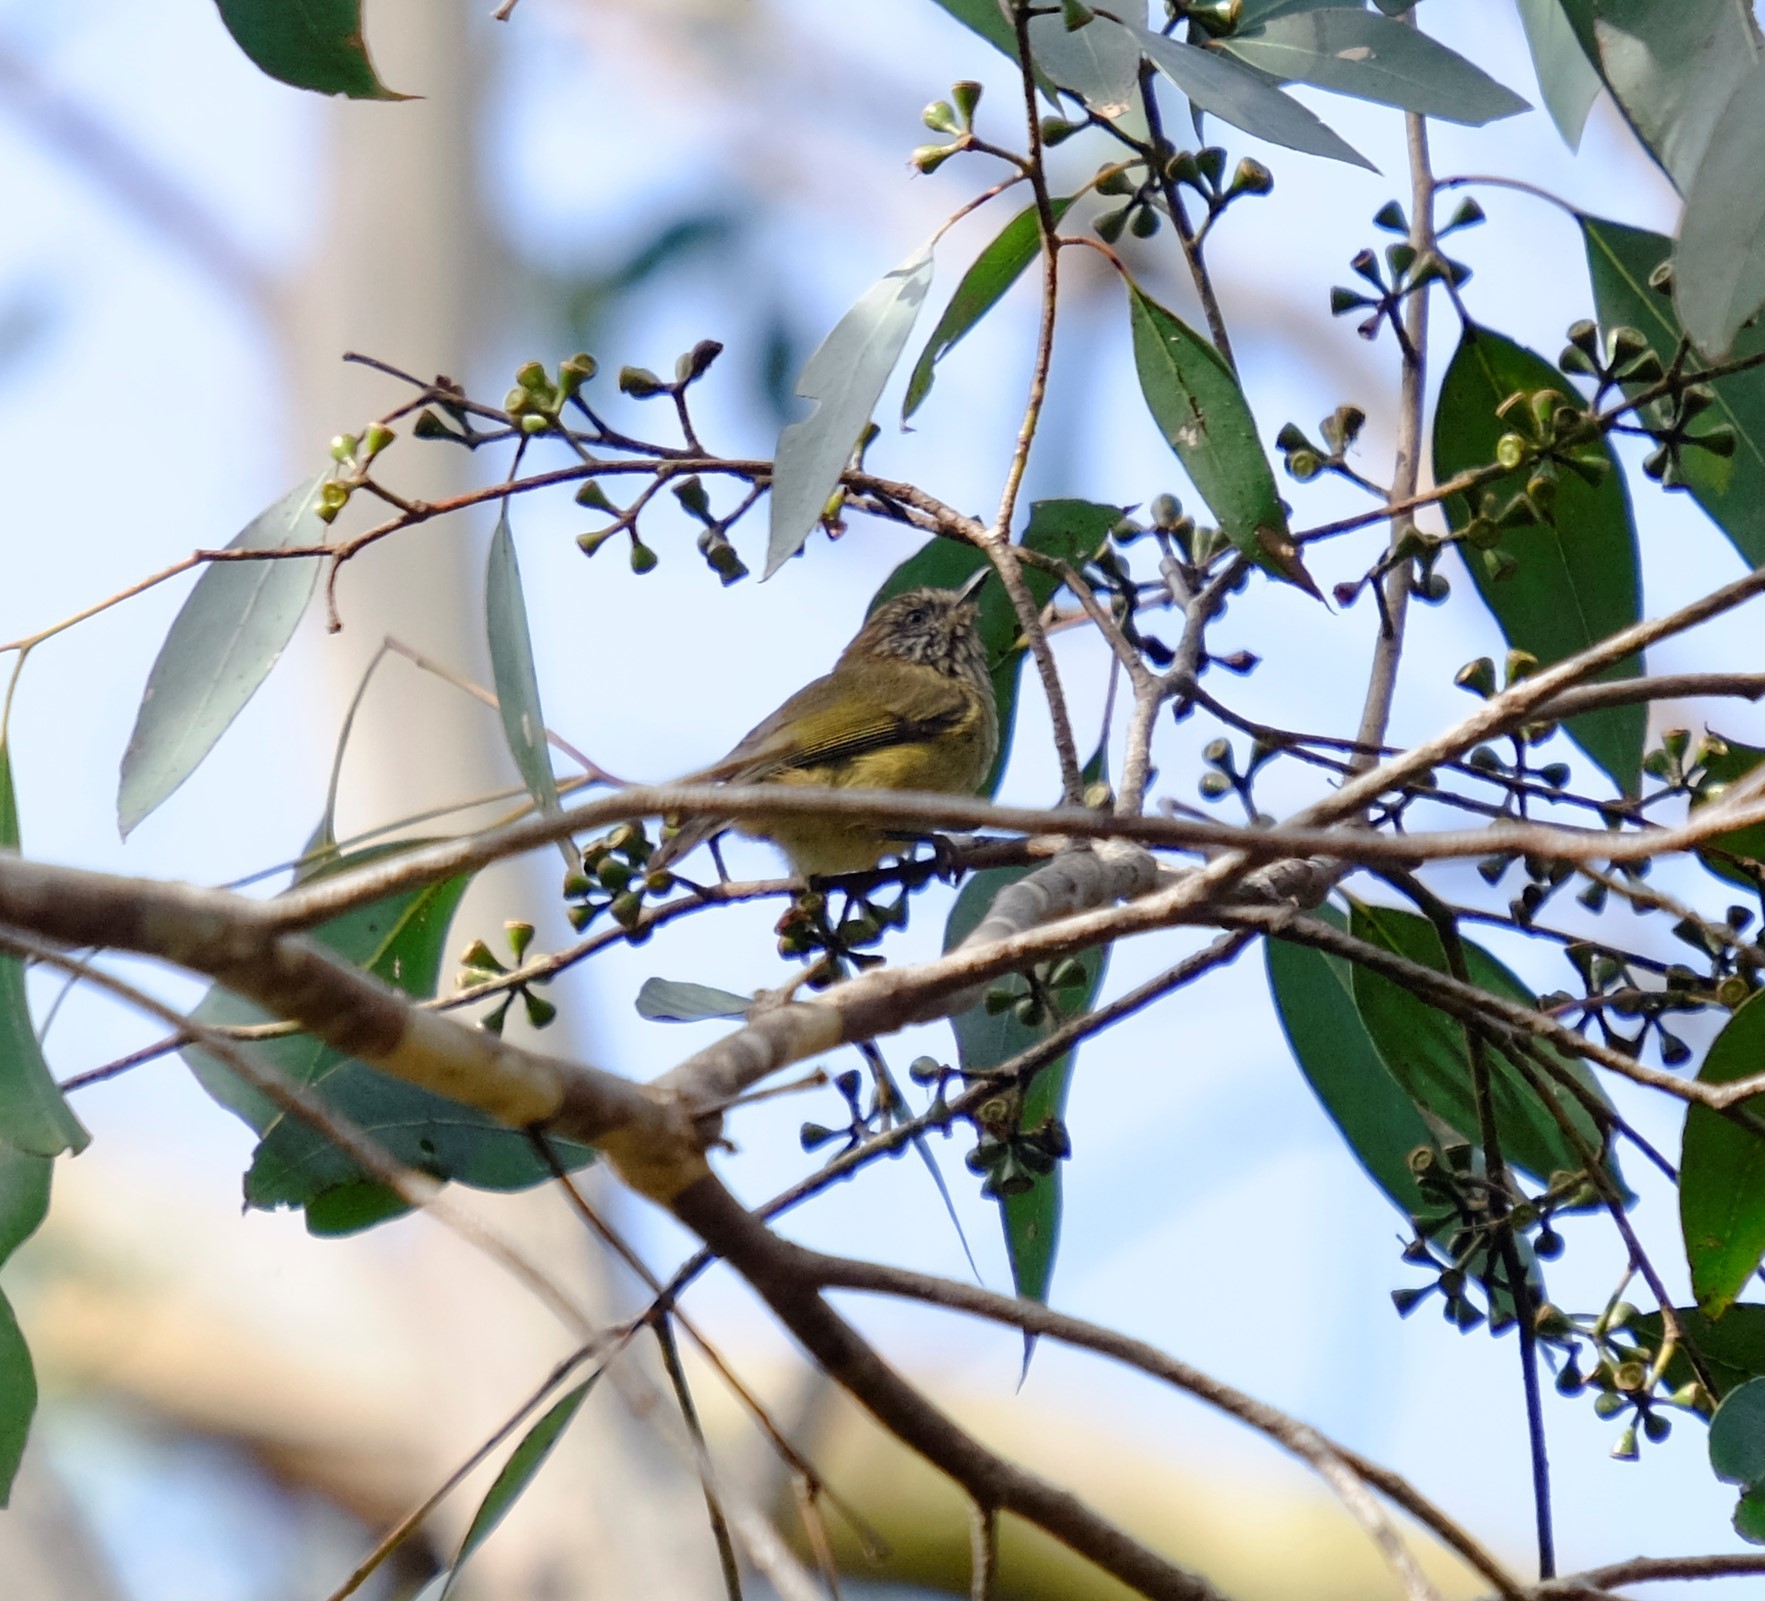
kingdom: Animalia
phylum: Chordata
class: Aves
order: Passeriformes
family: Acanthizidae
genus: Acanthiza
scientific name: Acanthiza lineata
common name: Striated thornbill
